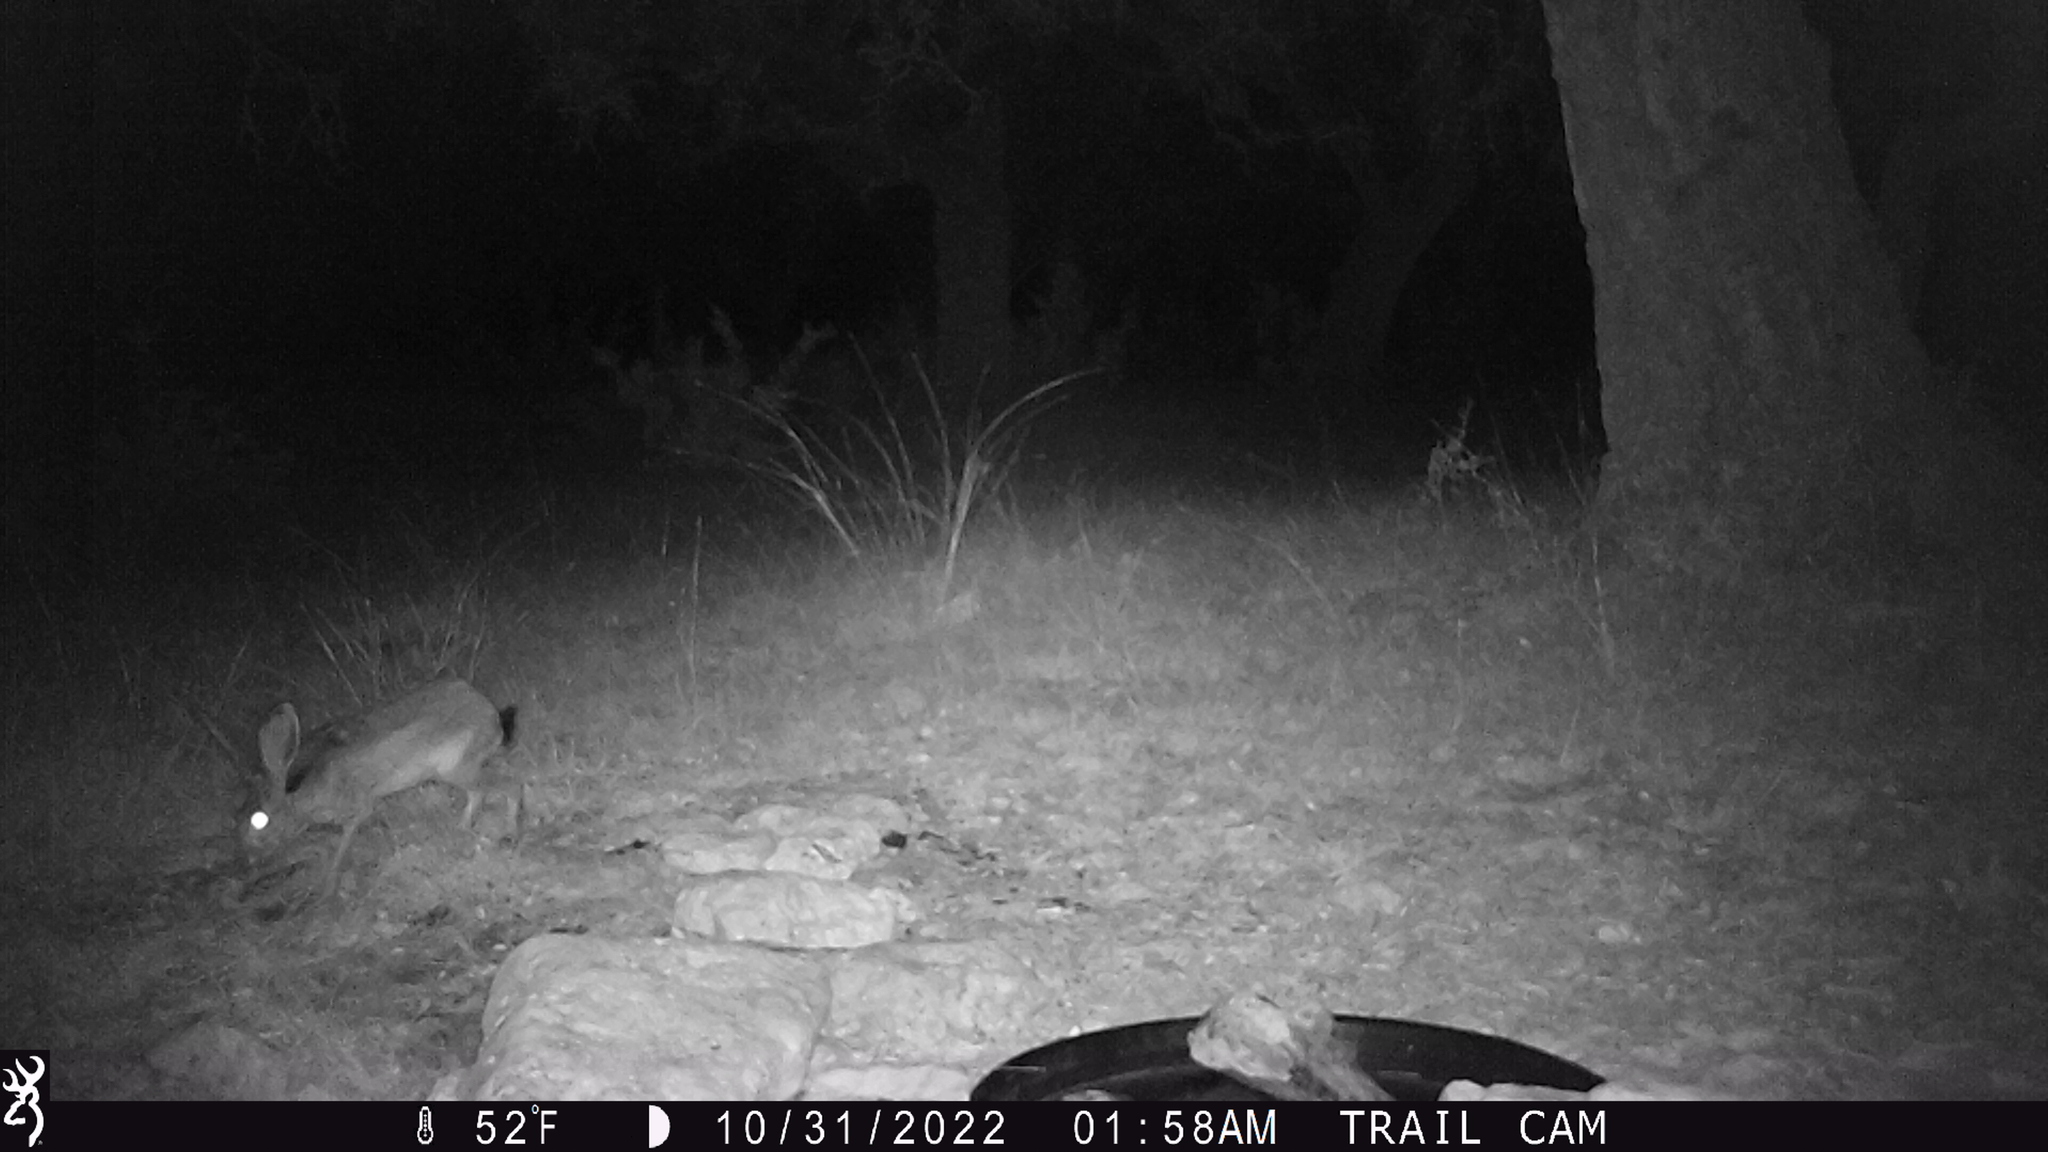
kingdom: Animalia
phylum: Chordata
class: Mammalia
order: Lagomorpha
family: Leporidae
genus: Lepus
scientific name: Lepus californicus
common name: Black-tailed jackrabbit
